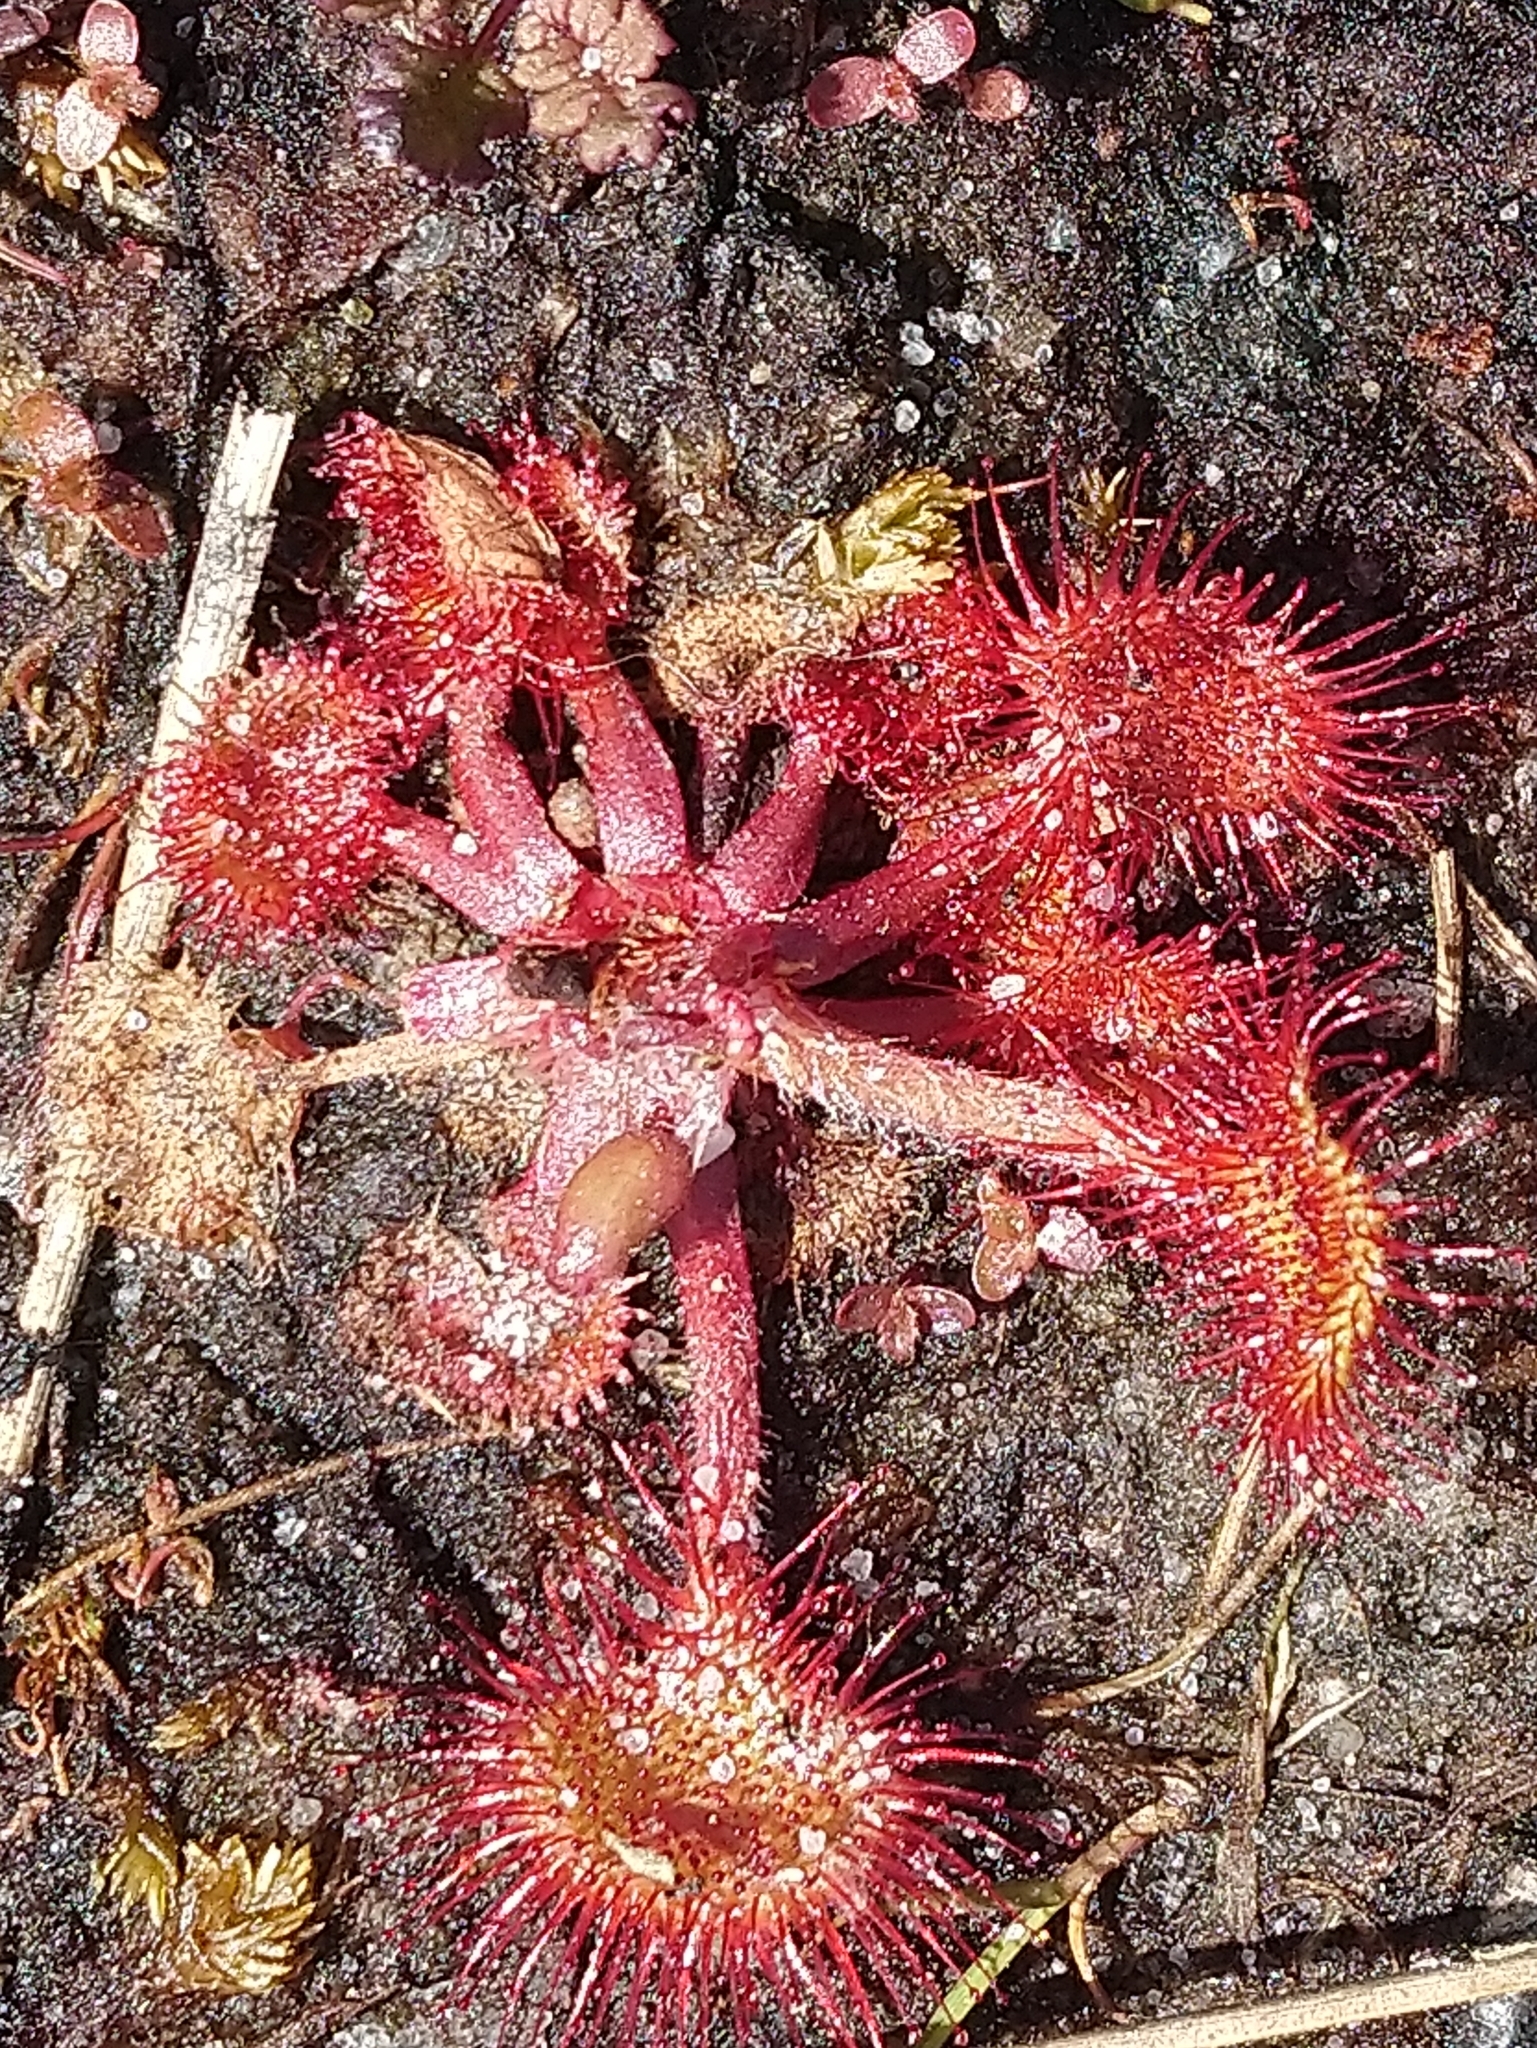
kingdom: Plantae
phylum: Tracheophyta
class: Magnoliopsida
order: Caryophyllales
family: Droseraceae
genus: Drosera
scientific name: Drosera rotundifolia
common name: Round-leaved sundew
